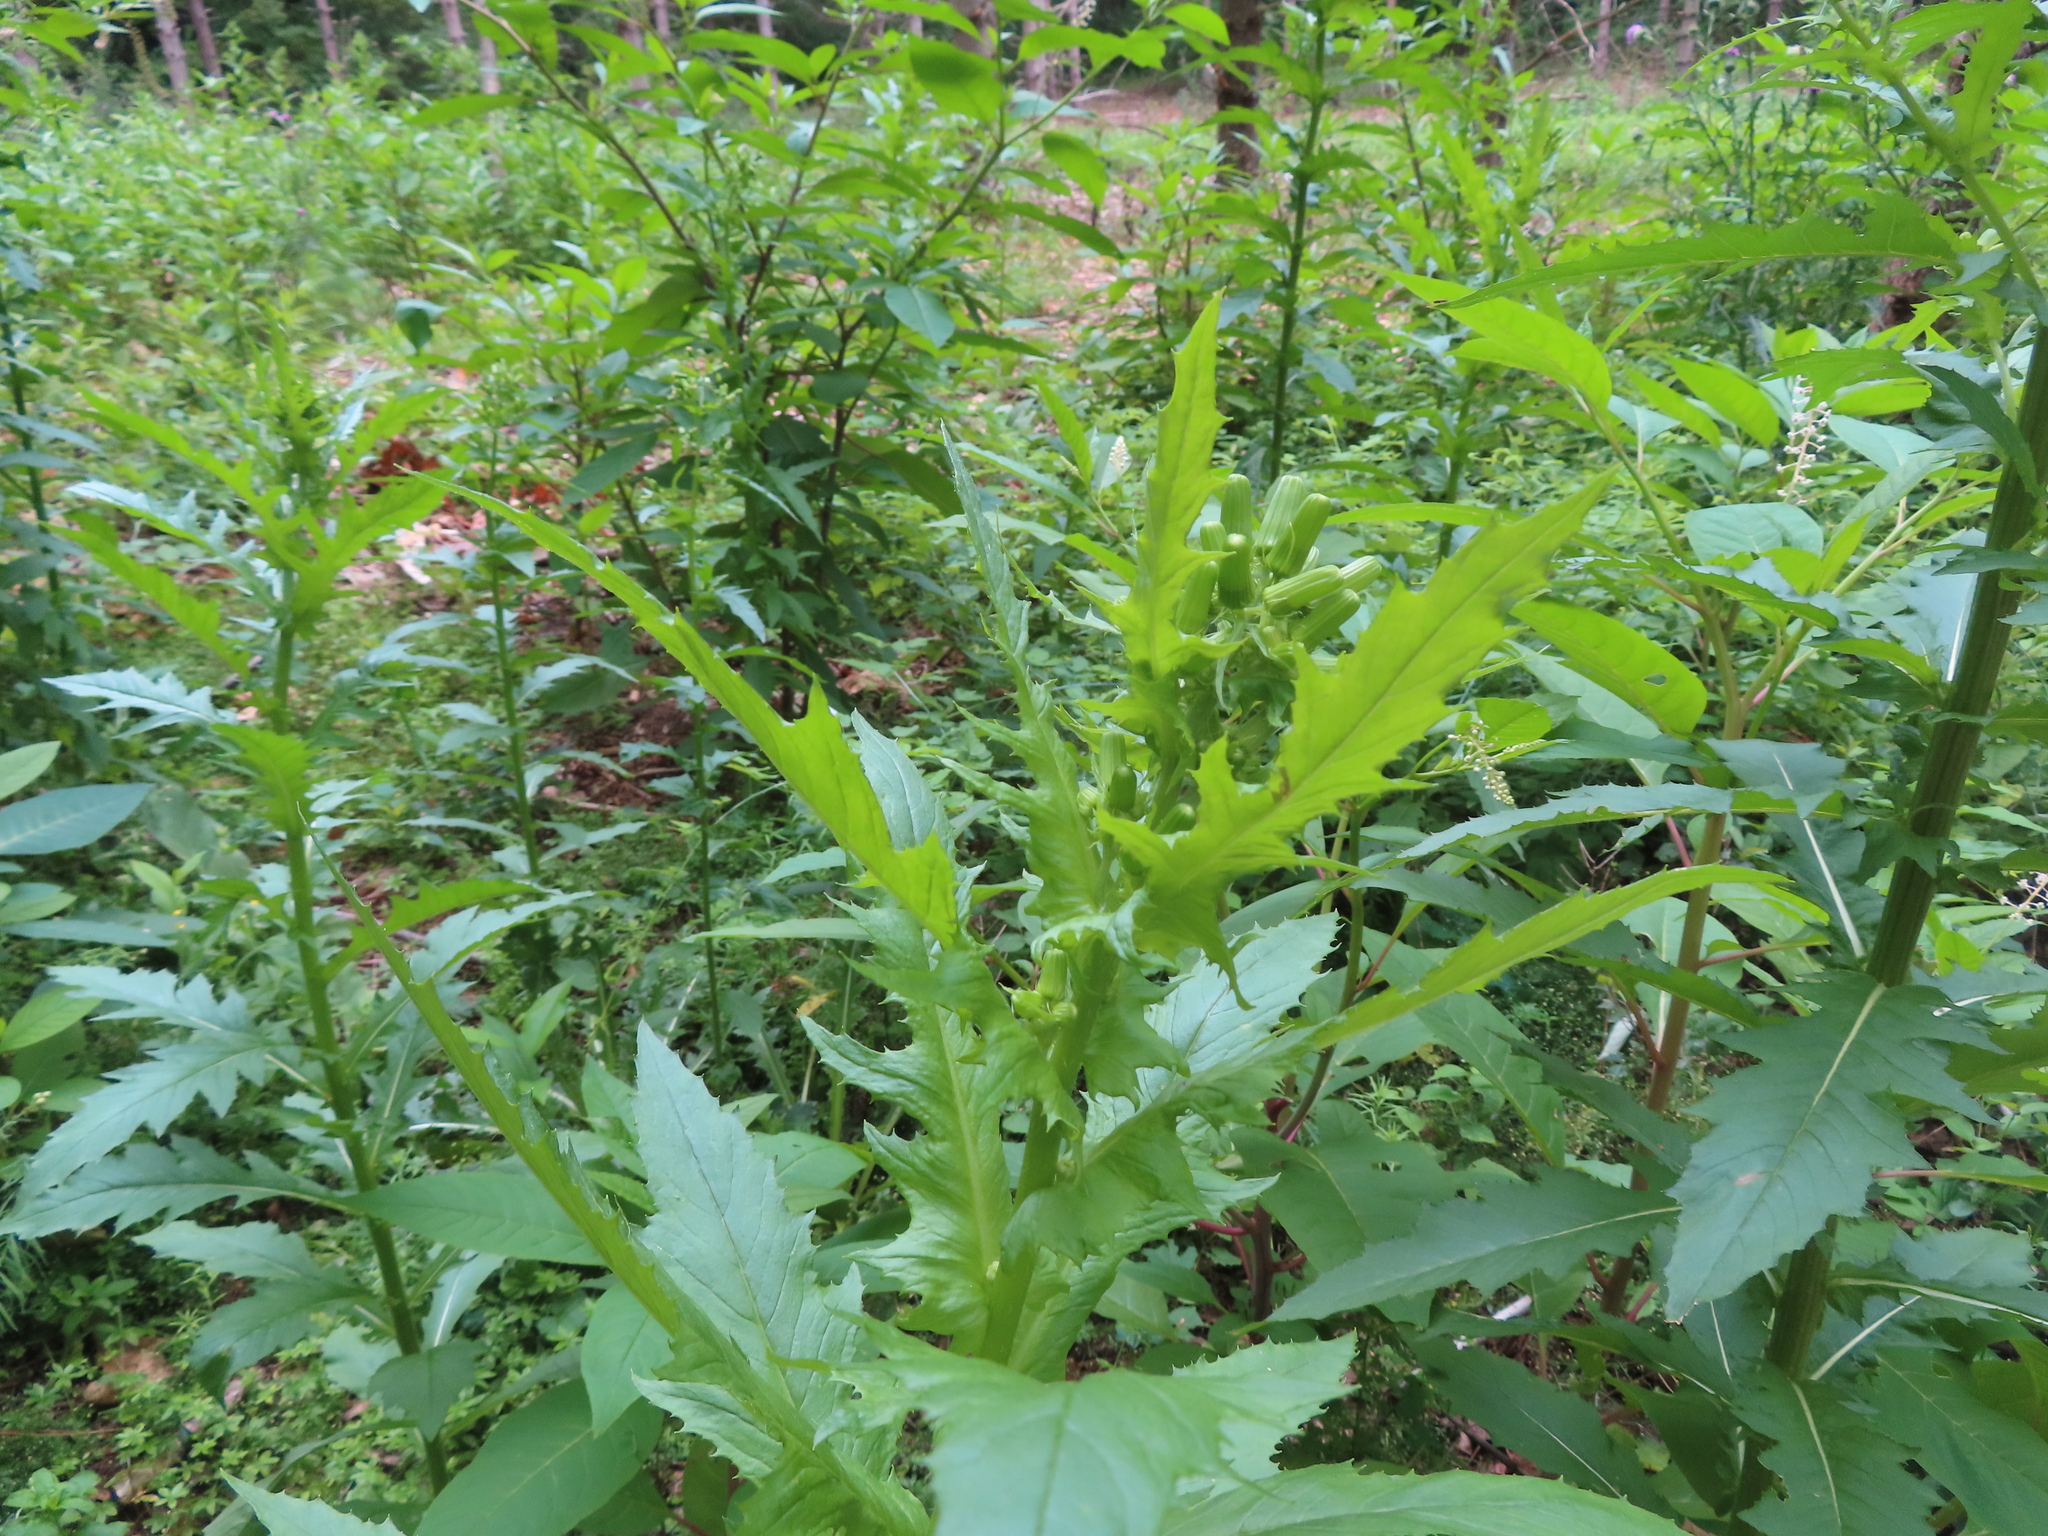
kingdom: Plantae
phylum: Tracheophyta
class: Magnoliopsida
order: Asterales
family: Asteraceae
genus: Erechtites
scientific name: Erechtites hieraciifolius
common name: American burnweed
